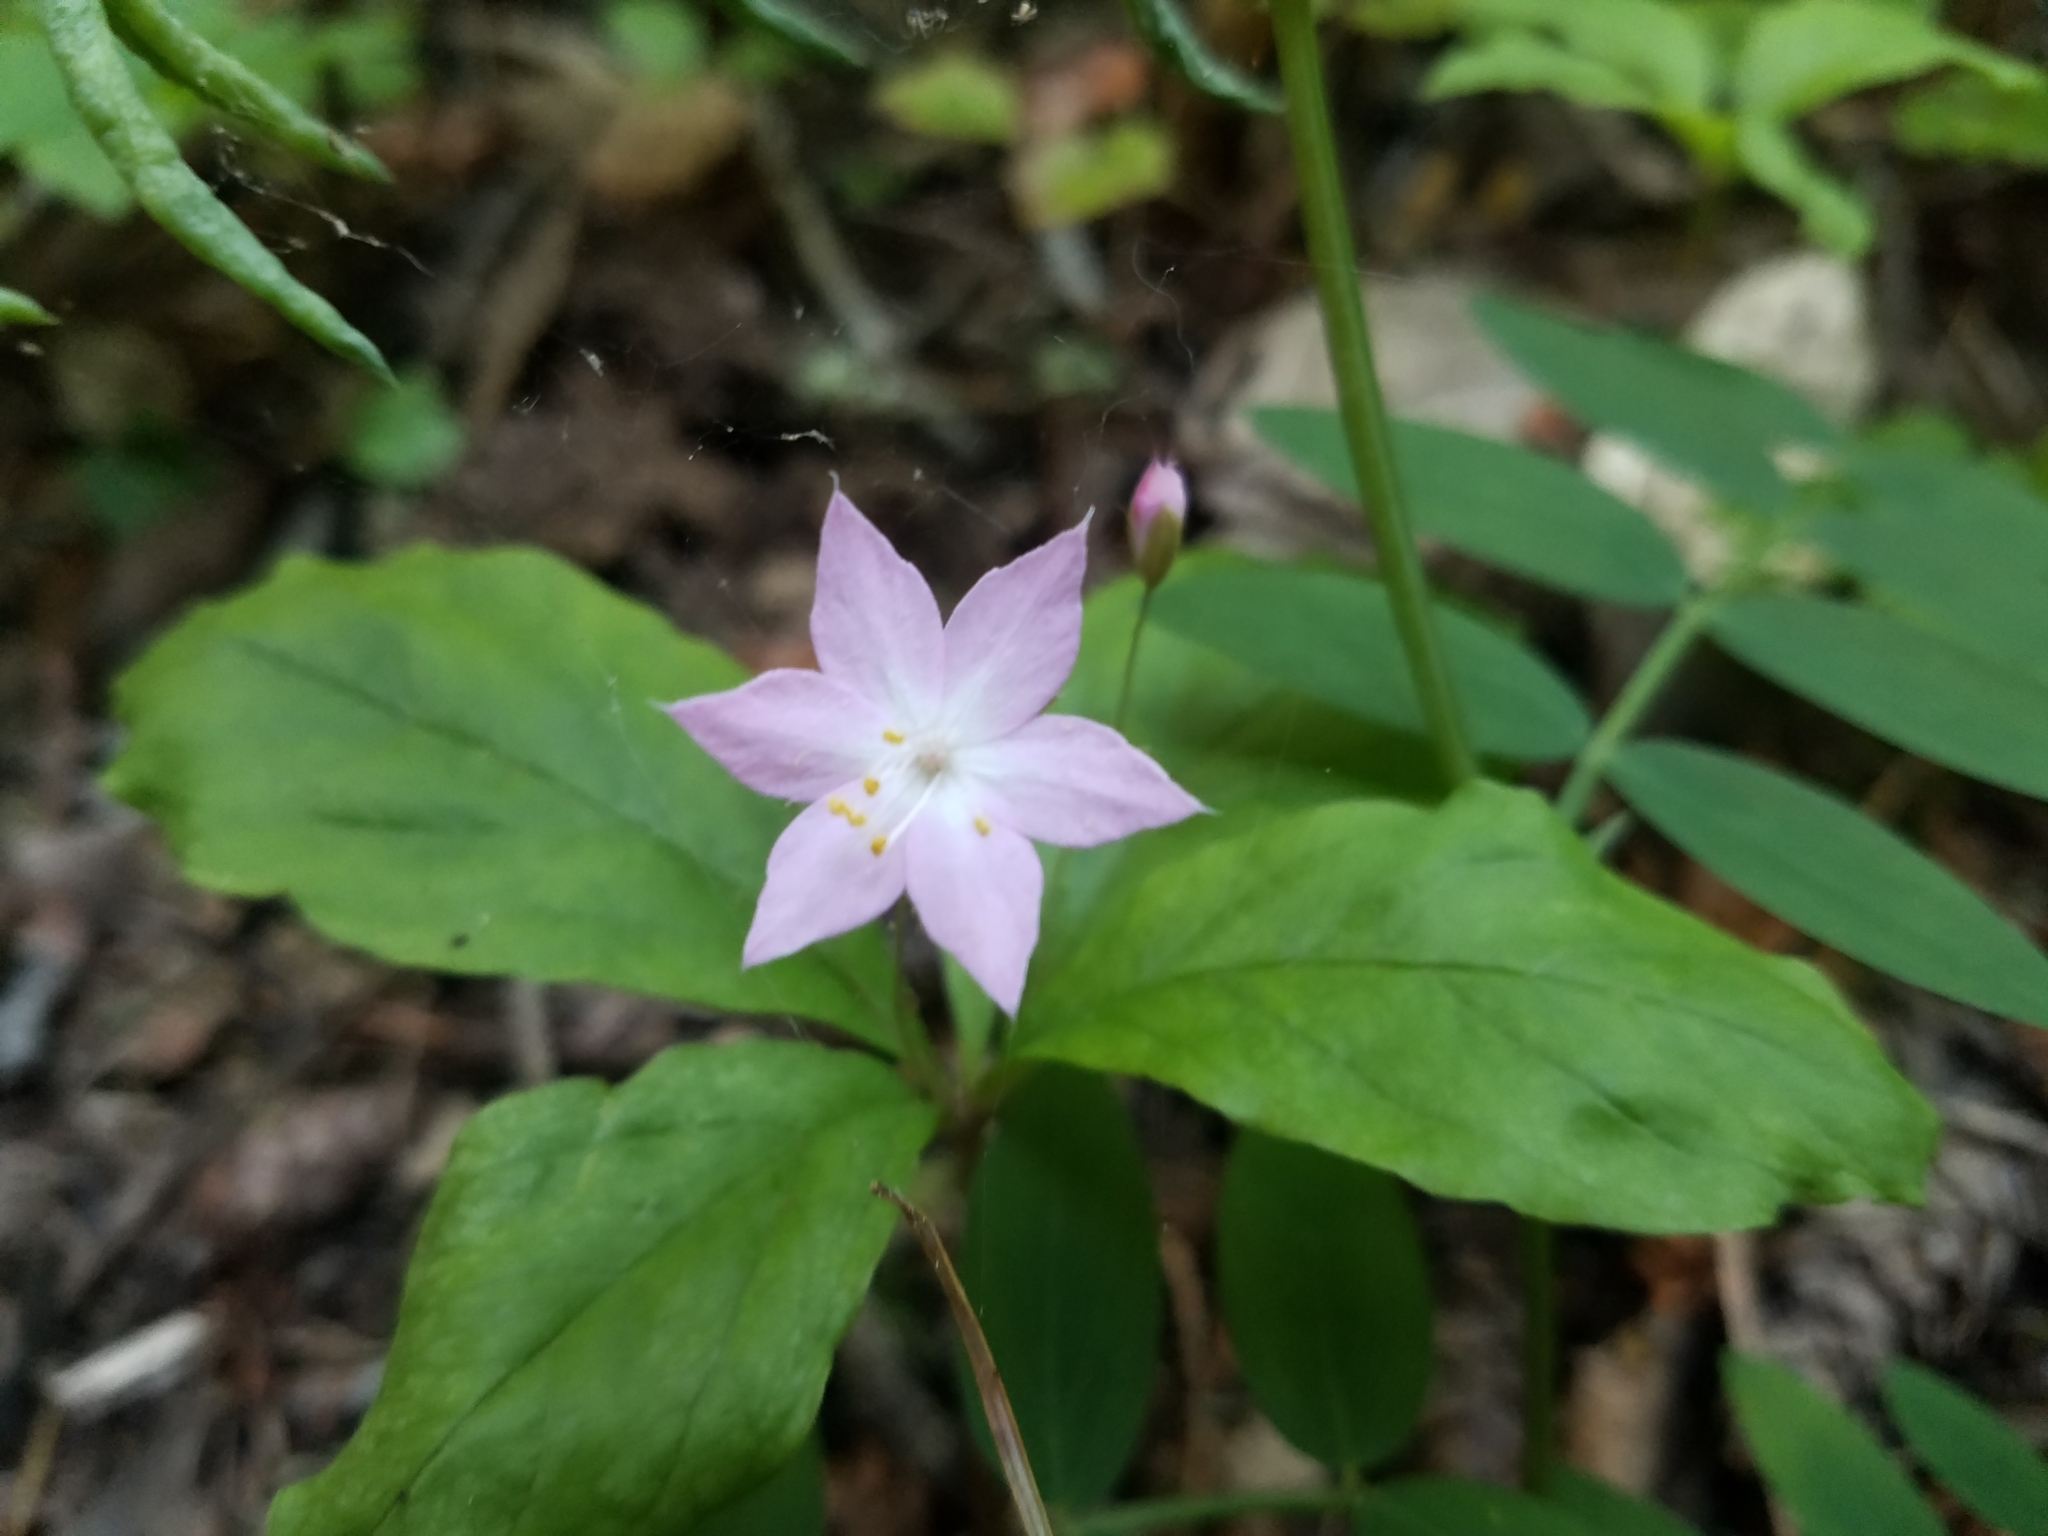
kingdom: Plantae
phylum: Tracheophyta
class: Magnoliopsida
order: Ericales
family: Primulaceae
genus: Lysimachia
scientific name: Lysimachia latifolia
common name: Pacific starflower
